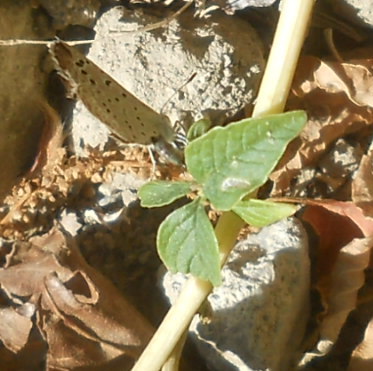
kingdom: Animalia
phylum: Arthropoda
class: Insecta
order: Lepidoptera
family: Lycaenidae
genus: Zizeeria
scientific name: Zizeeria karsandra
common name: Dark grass blue
